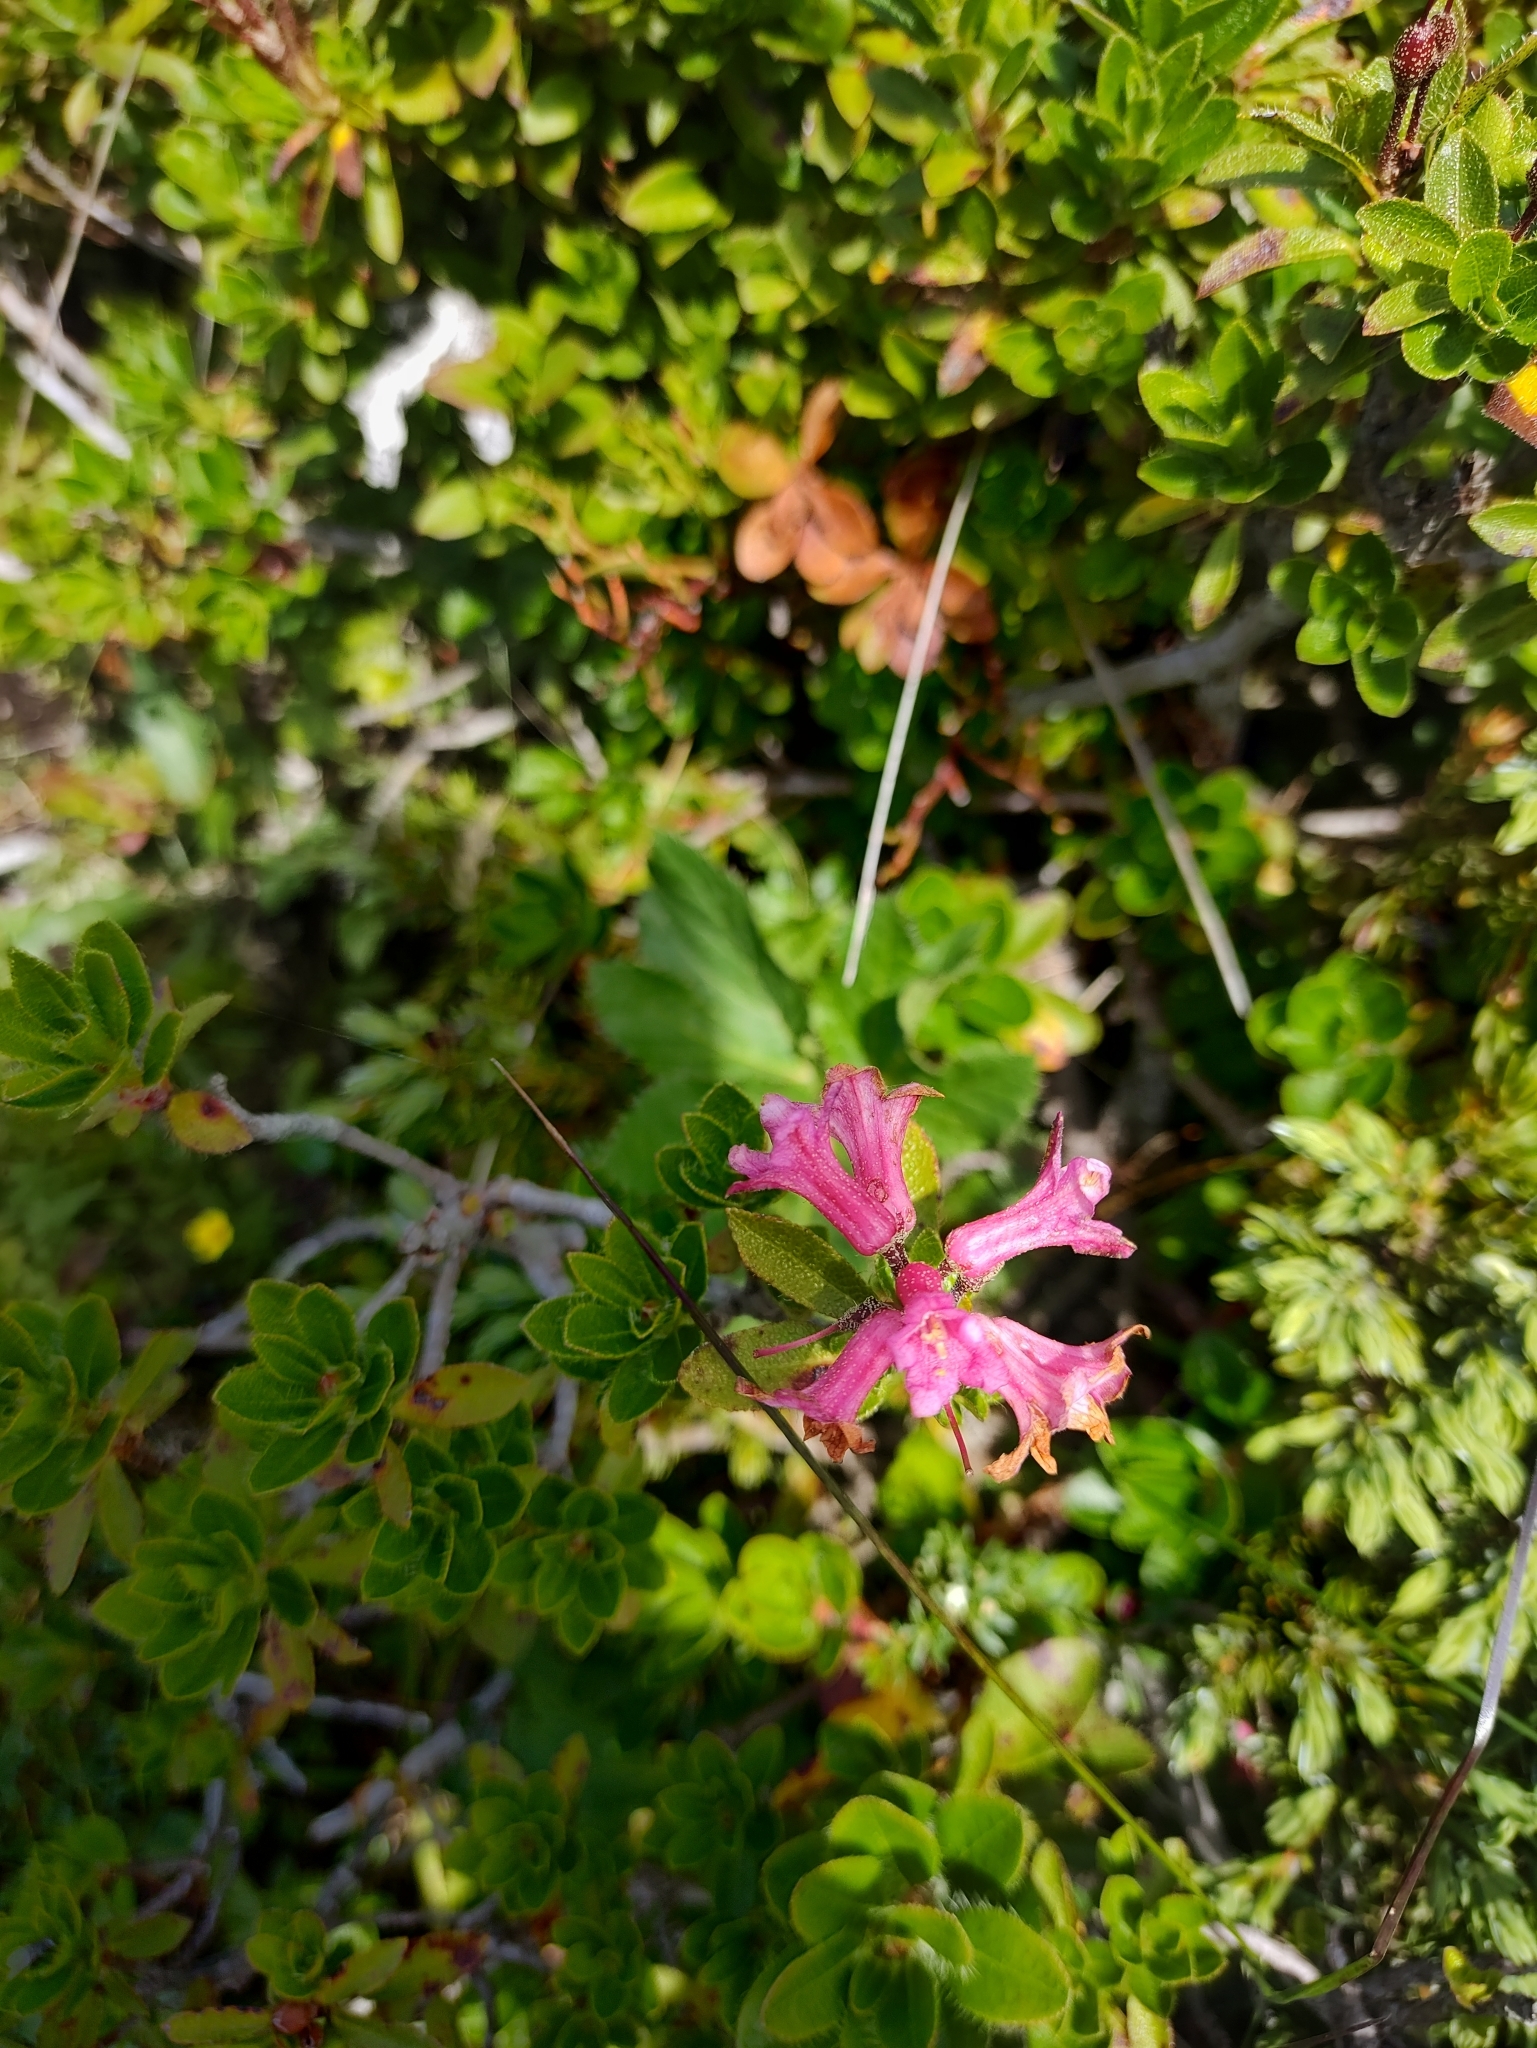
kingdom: Plantae
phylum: Tracheophyta
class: Magnoliopsida
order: Ericales
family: Ericaceae
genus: Rhododendron
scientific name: Rhododendron hirsutum
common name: Hairy alpenrose
